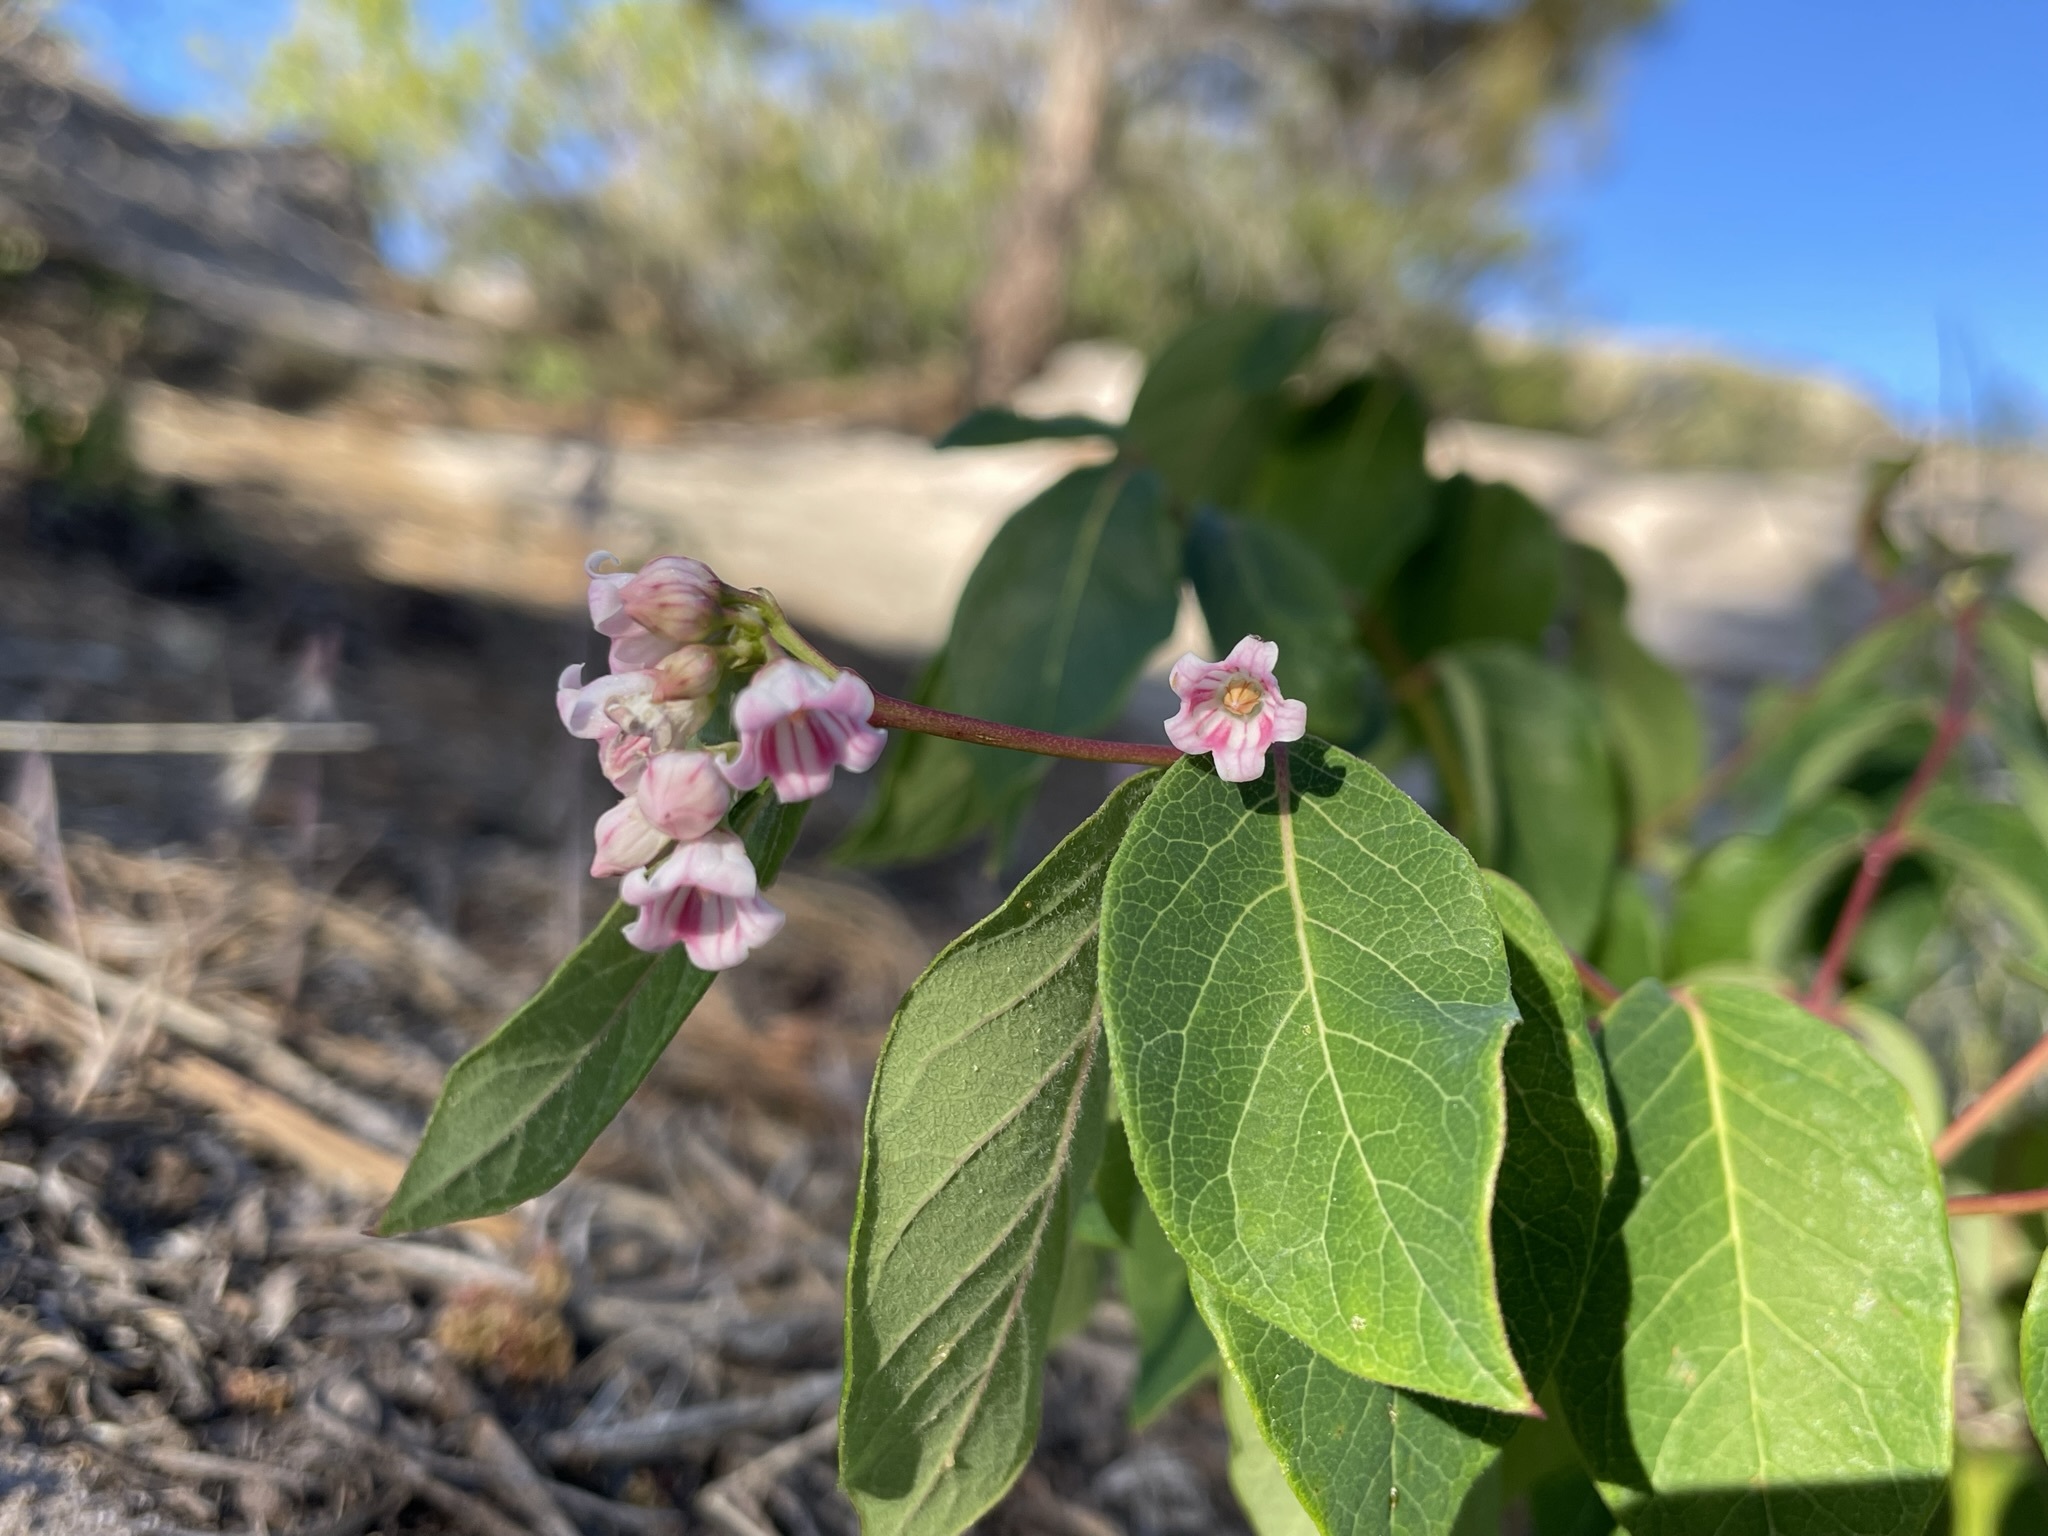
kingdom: Plantae
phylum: Tracheophyta
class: Magnoliopsida
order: Gentianales
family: Apocynaceae
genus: Apocynum
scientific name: Apocynum androsaemifolium
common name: Spreading dogbane
